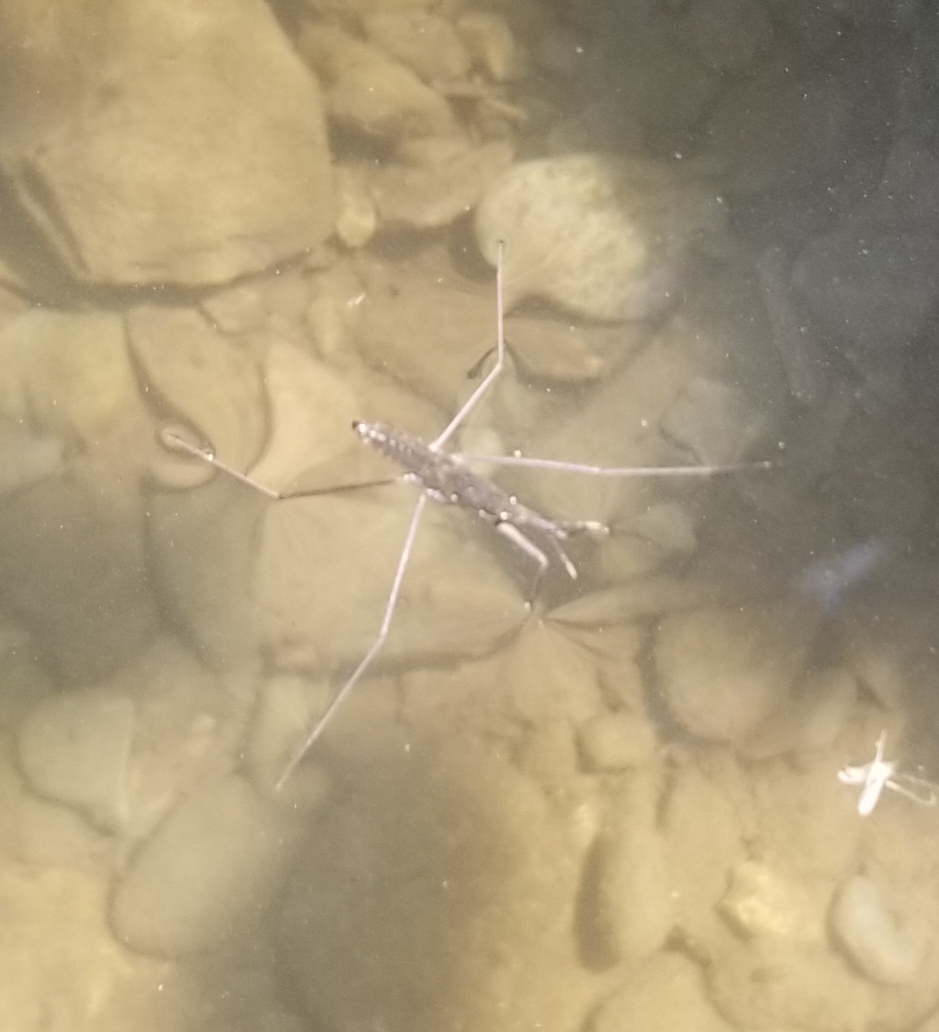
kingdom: Animalia
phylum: Arthropoda
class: Insecta
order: Hemiptera
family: Gerridae
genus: Aquarius
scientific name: Aquarius remigis
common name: Common water strider
